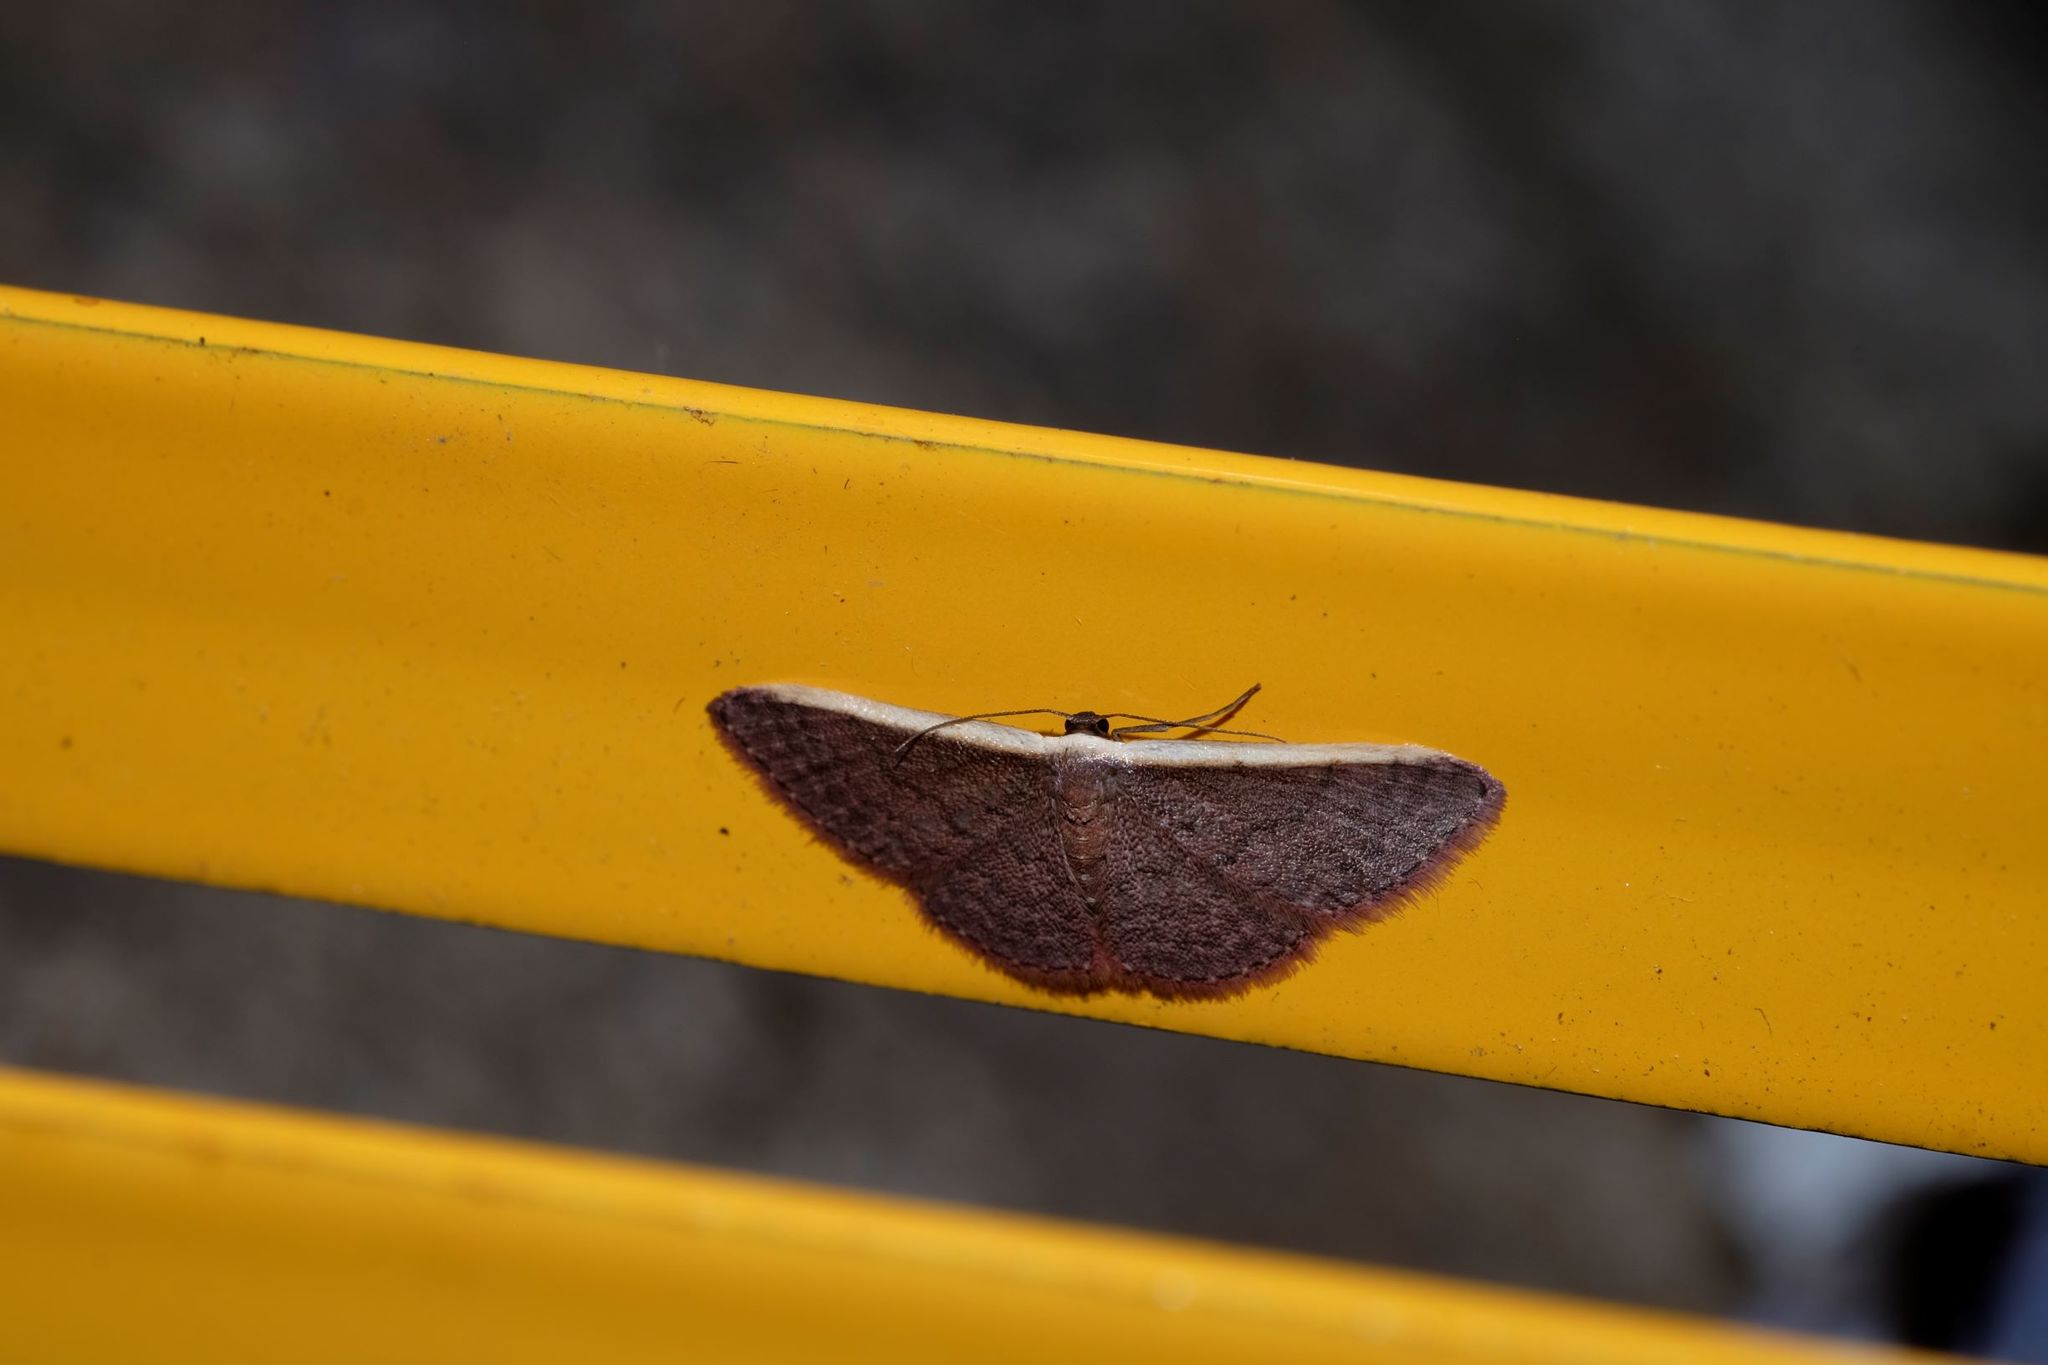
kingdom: Animalia
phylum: Arthropoda
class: Insecta
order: Lepidoptera
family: Geometridae
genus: Idaea
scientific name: Idaea inversata
